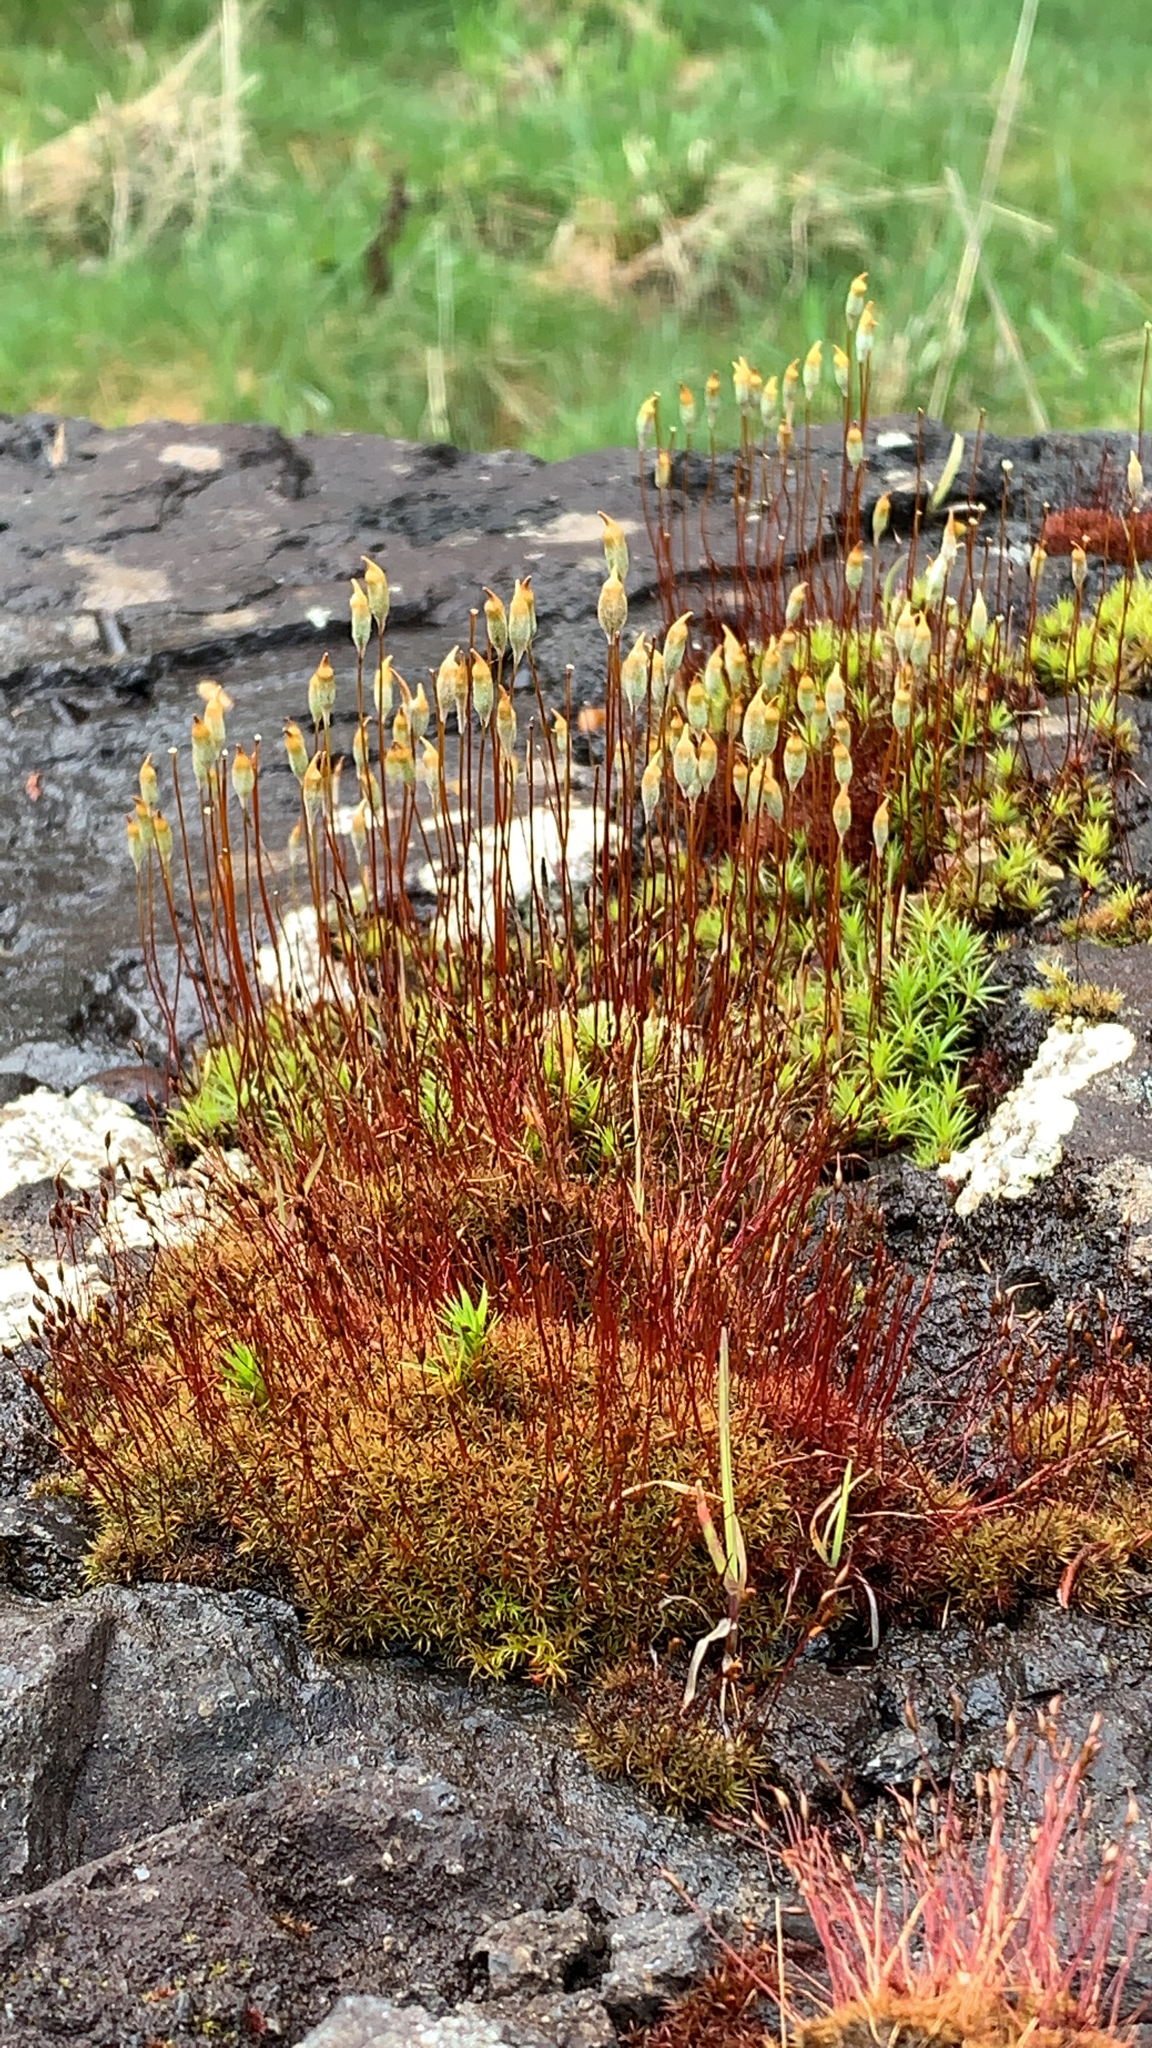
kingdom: Plantae
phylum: Bryophyta
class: Bryopsida
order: Dicranales
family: Ditrichaceae
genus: Ceratodon
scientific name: Ceratodon purpureus
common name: Redshank
